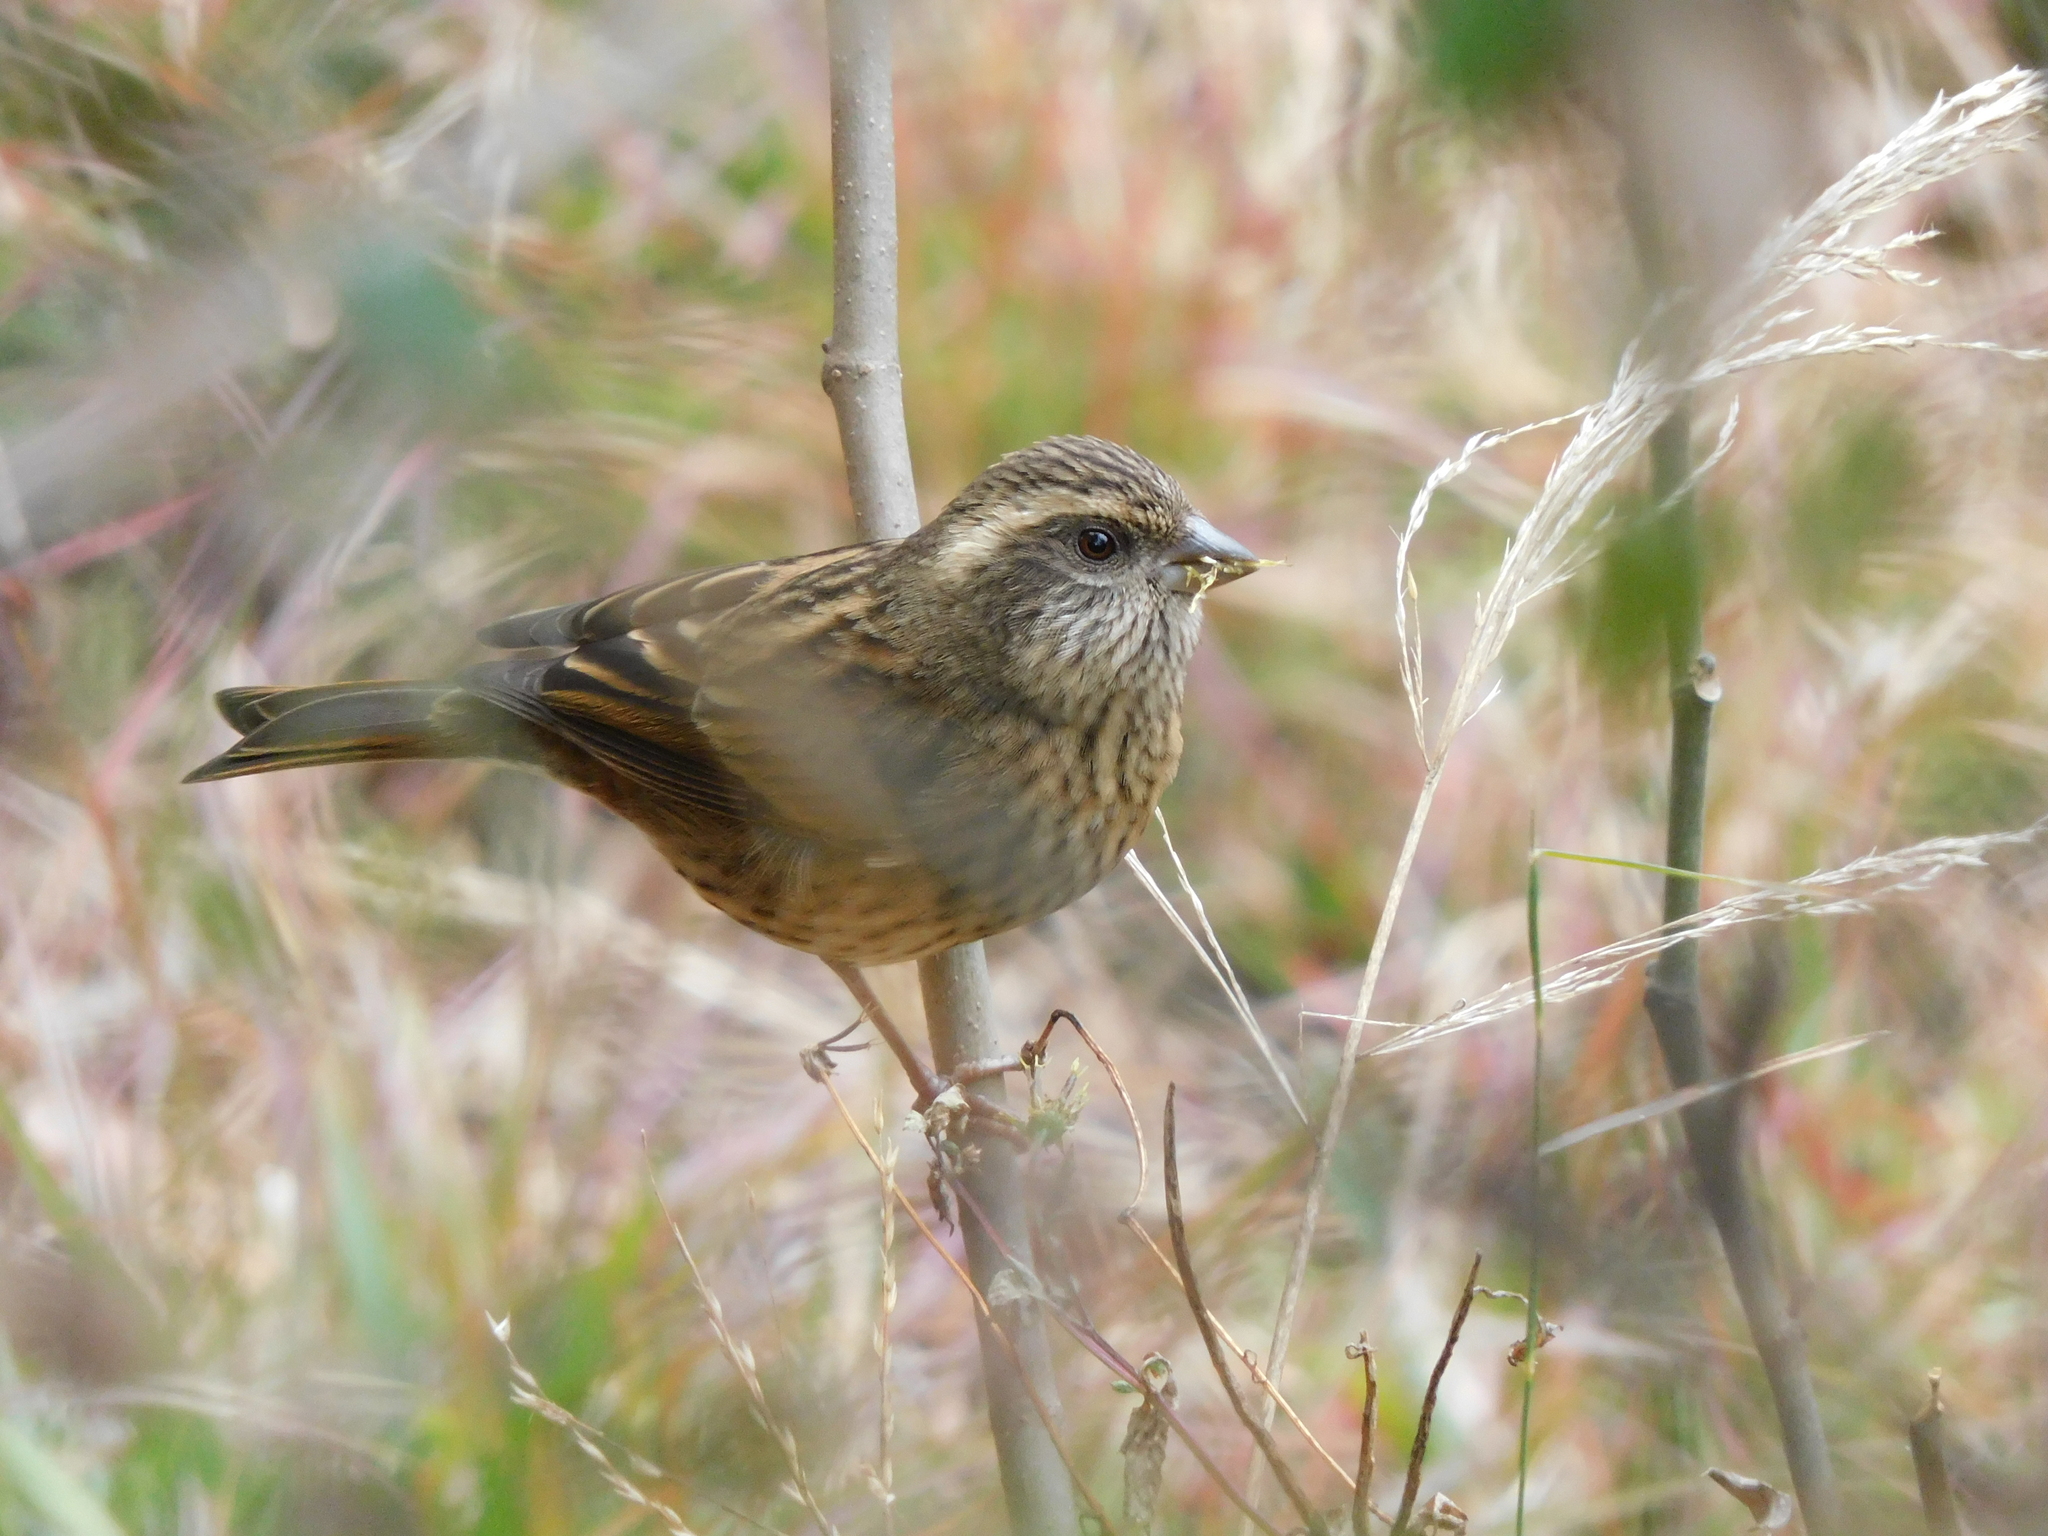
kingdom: Animalia
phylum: Chordata
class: Aves
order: Passeriformes
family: Fringillidae
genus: Carpodacus
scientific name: Carpodacus rodochroa
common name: Pink-browed rosefinch
